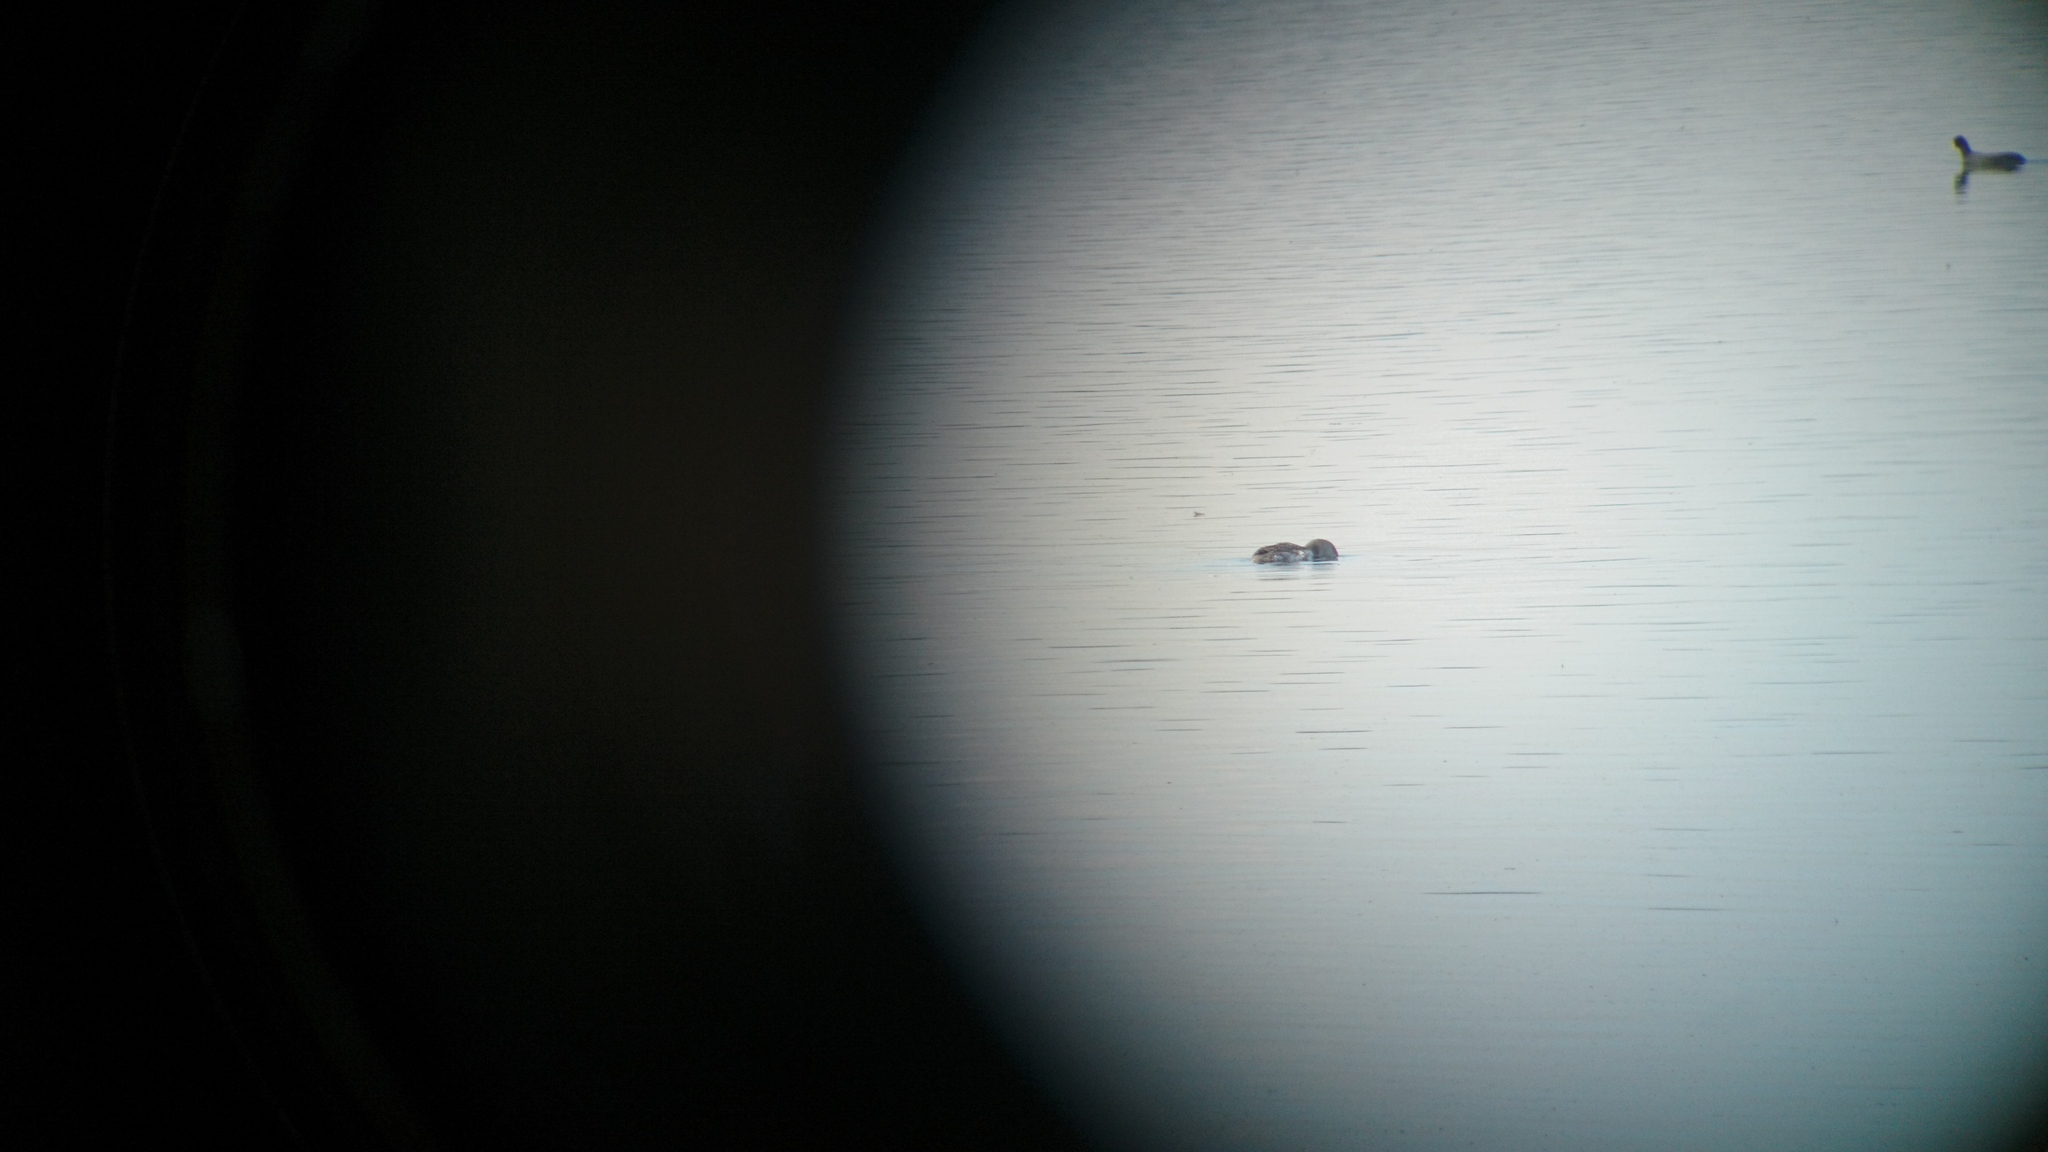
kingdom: Animalia
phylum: Chordata
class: Aves
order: Gaviiformes
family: Gaviidae
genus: Gavia
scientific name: Gavia stellata
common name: Red-throated loon
